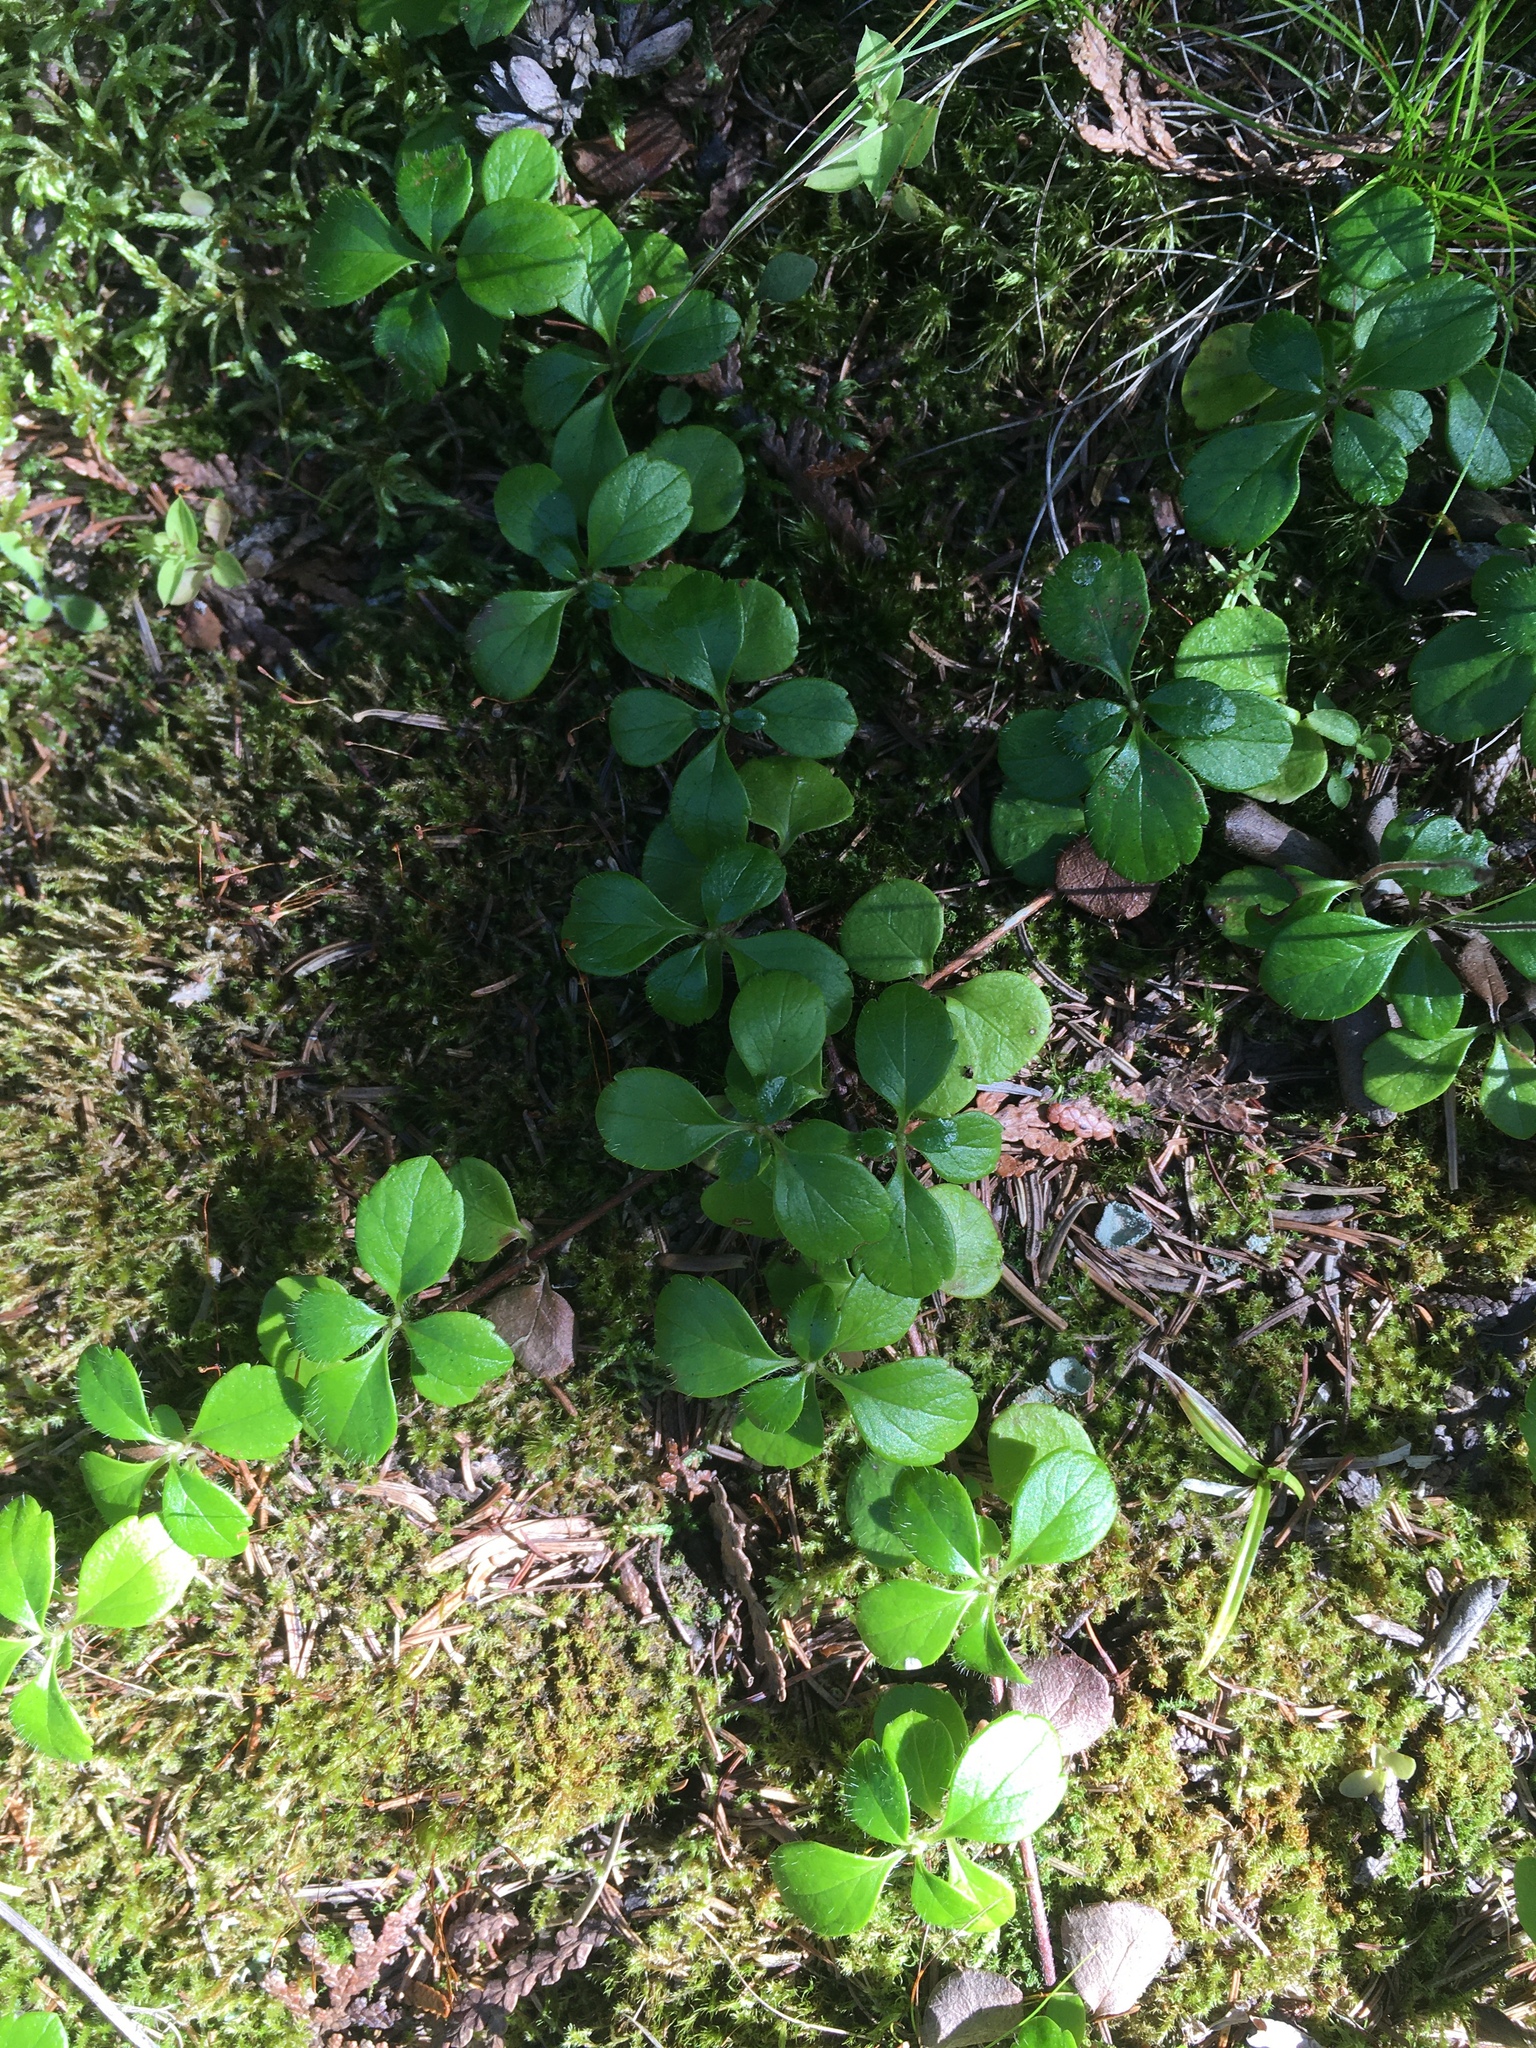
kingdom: Plantae
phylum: Tracheophyta
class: Magnoliopsida
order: Dipsacales
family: Caprifoliaceae
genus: Linnaea
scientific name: Linnaea borealis
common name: Twinflower
